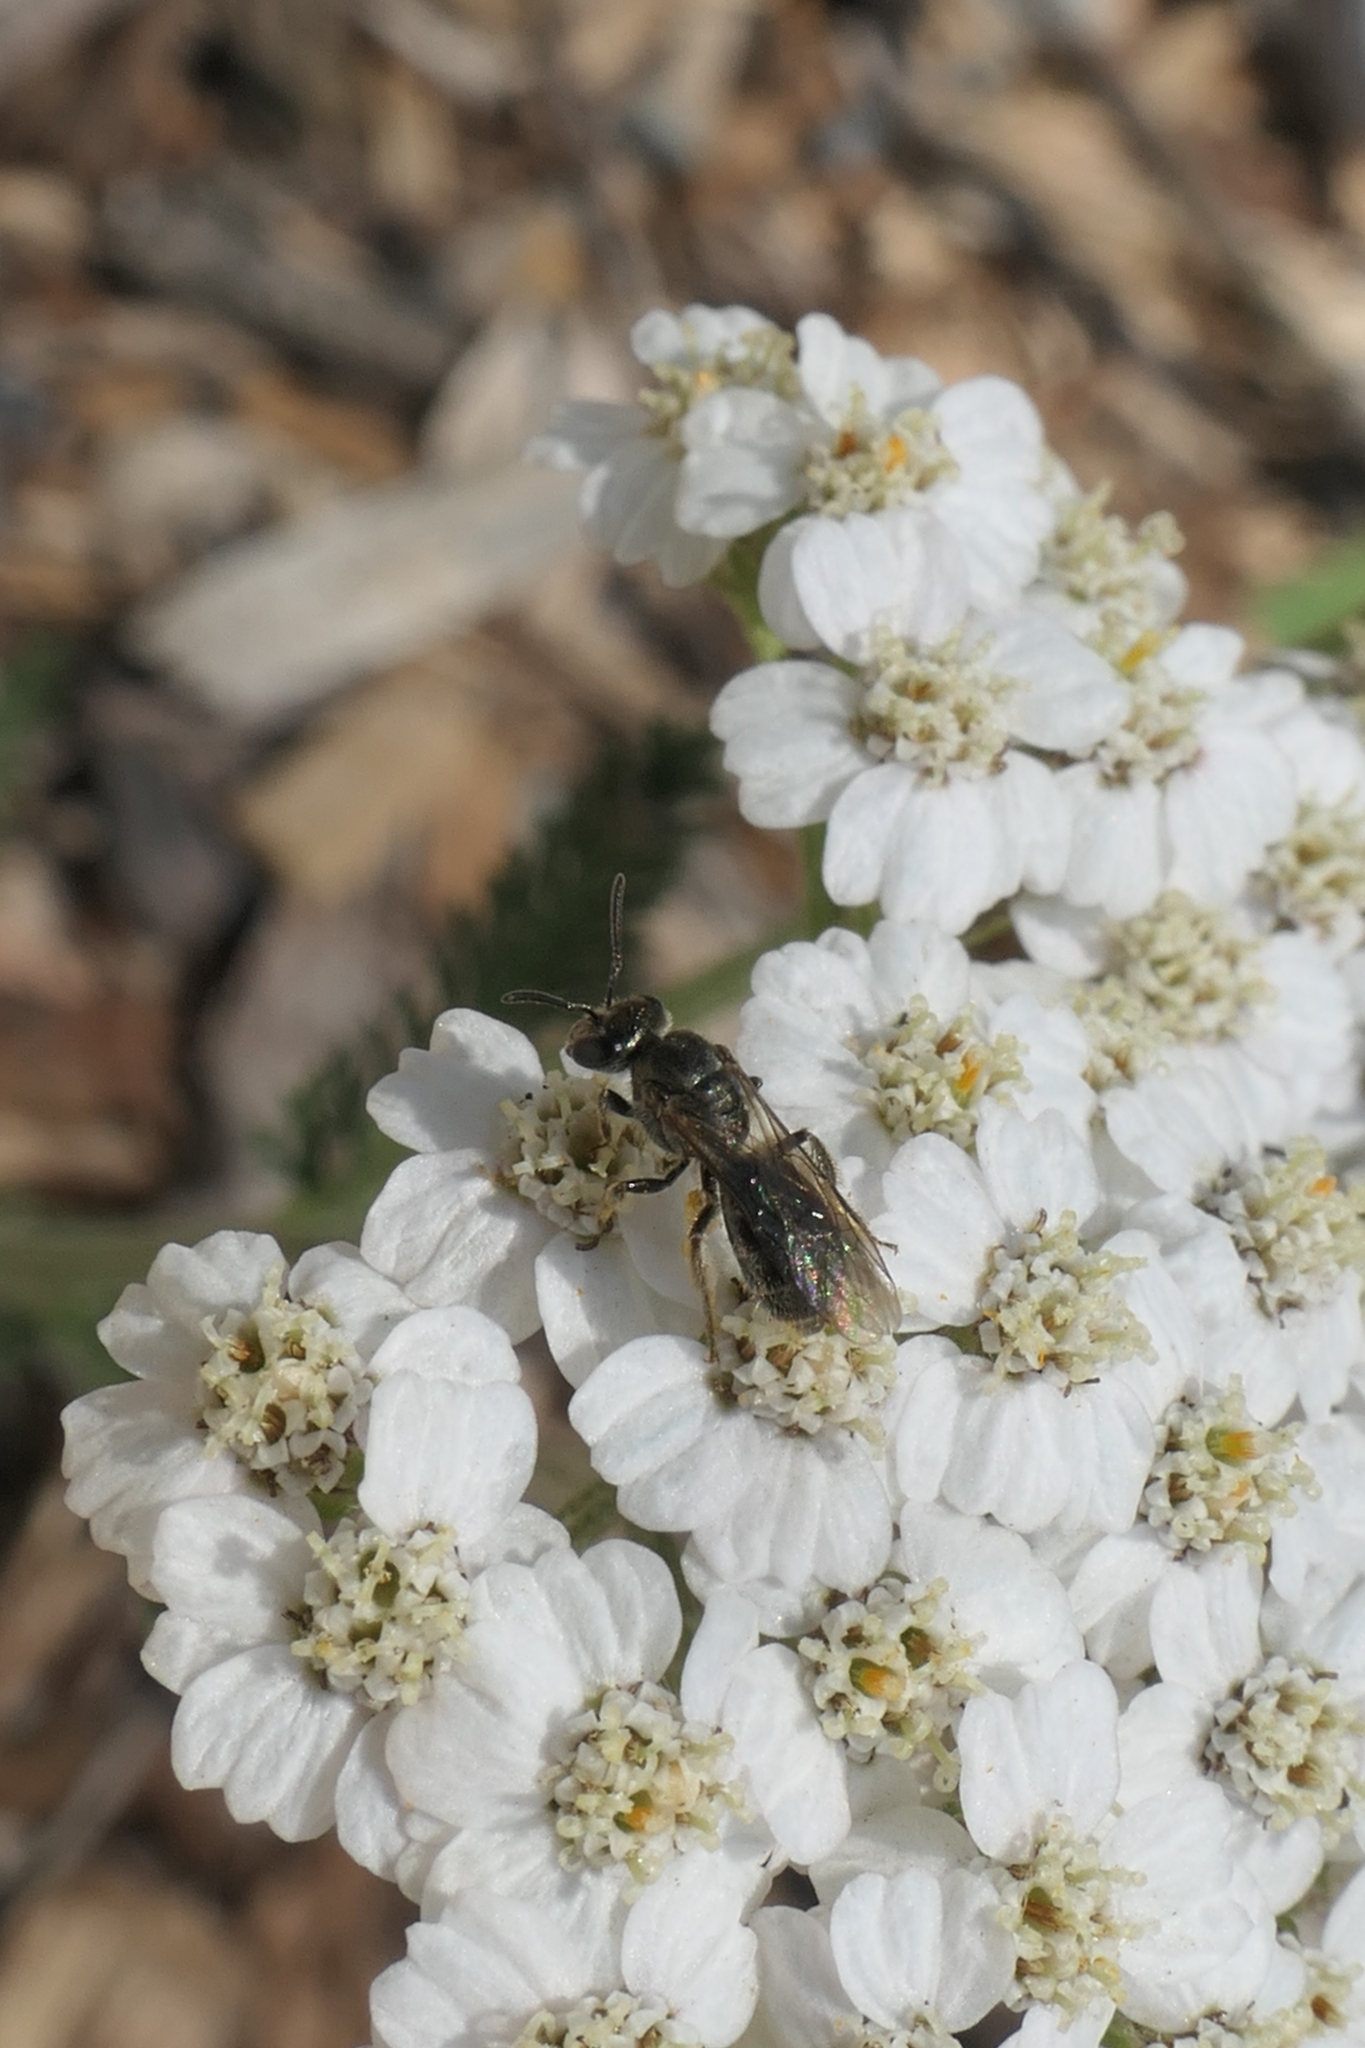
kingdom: Animalia
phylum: Arthropoda
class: Insecta
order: Hymenoptera
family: Halictidae
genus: Lasioglossum
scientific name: Lasioglossum sordidum
